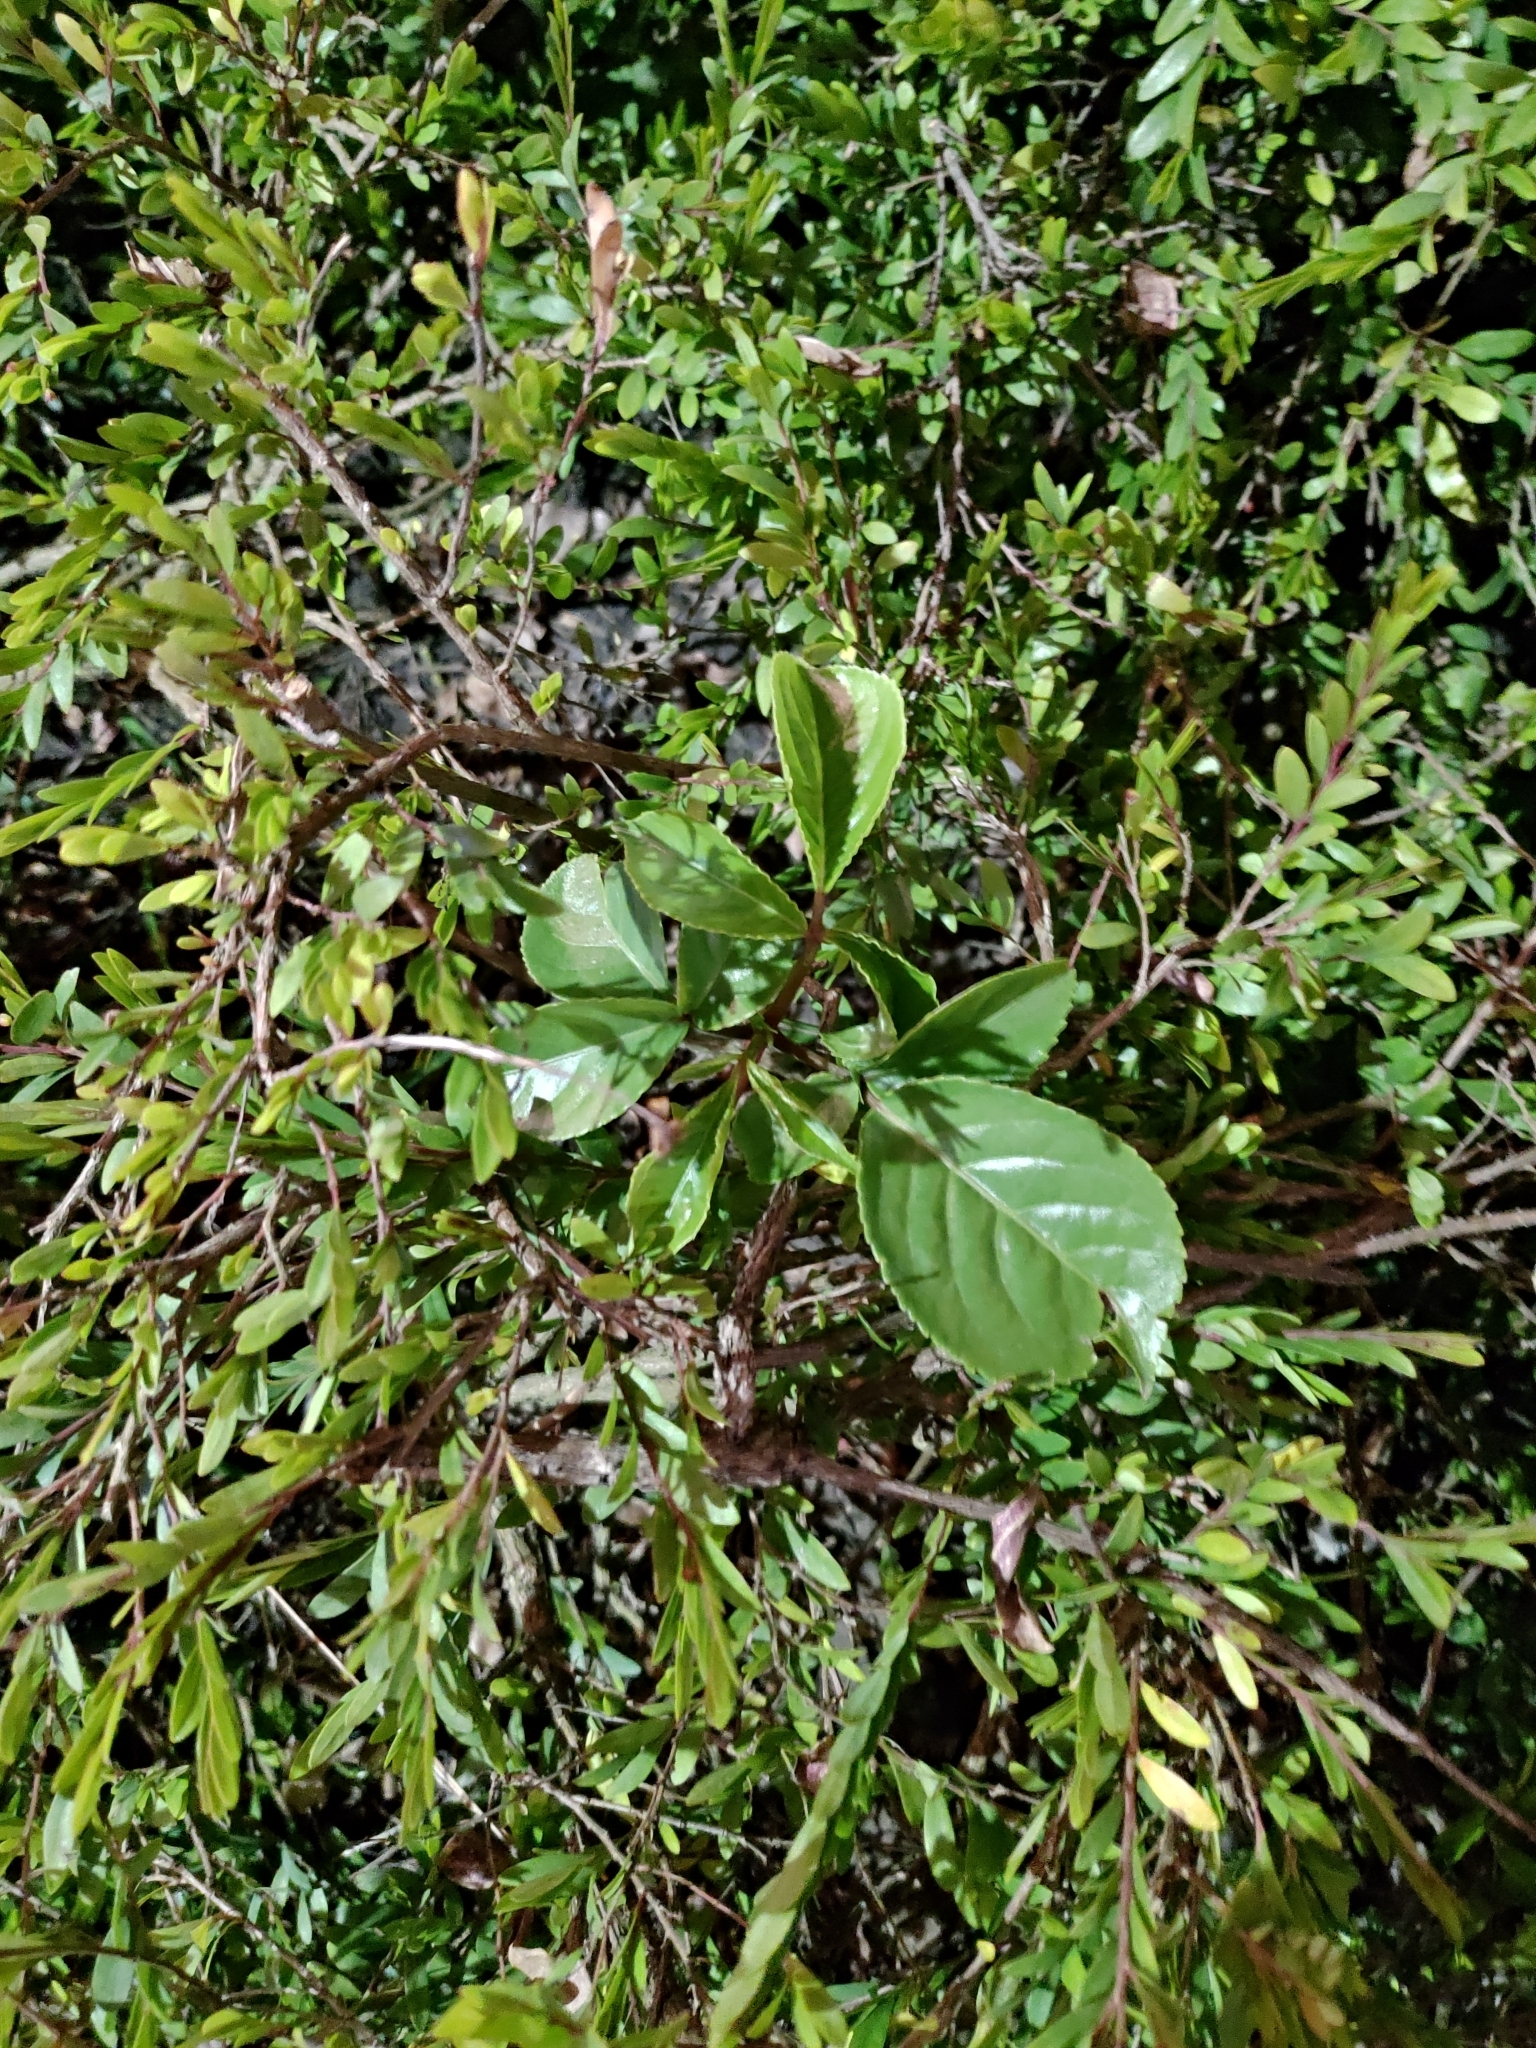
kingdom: Plantae
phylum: Tracheophyta
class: Magnoliopsida
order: Malpighiales
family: Phyllanthaceae
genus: Bischofia
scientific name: Bischofia javanica
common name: Javanese bishopwood
